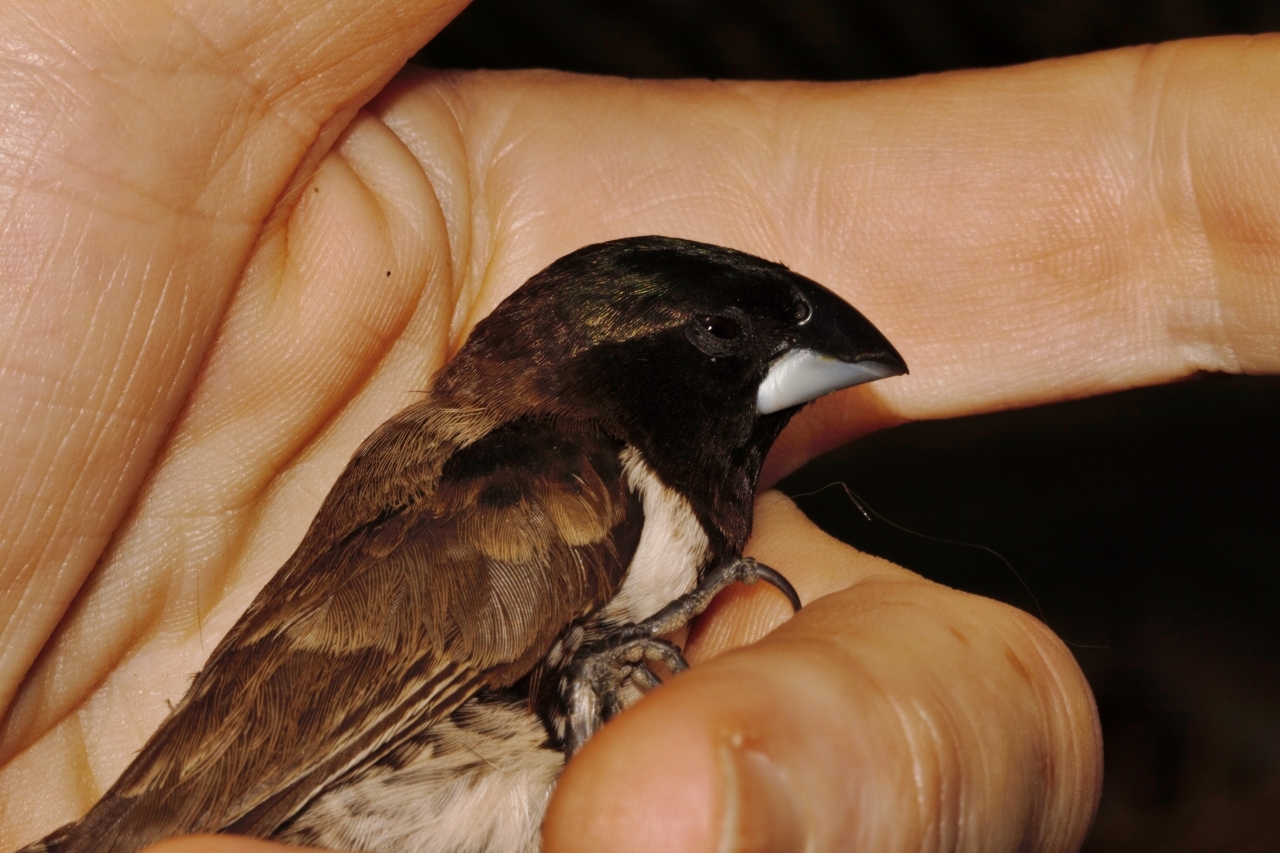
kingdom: Animalia
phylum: Chordata
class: Aves
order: Passeriformes
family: Estrildidae
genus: Lonchura
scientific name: Lonchura cucullata
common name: Bronze mannikin
